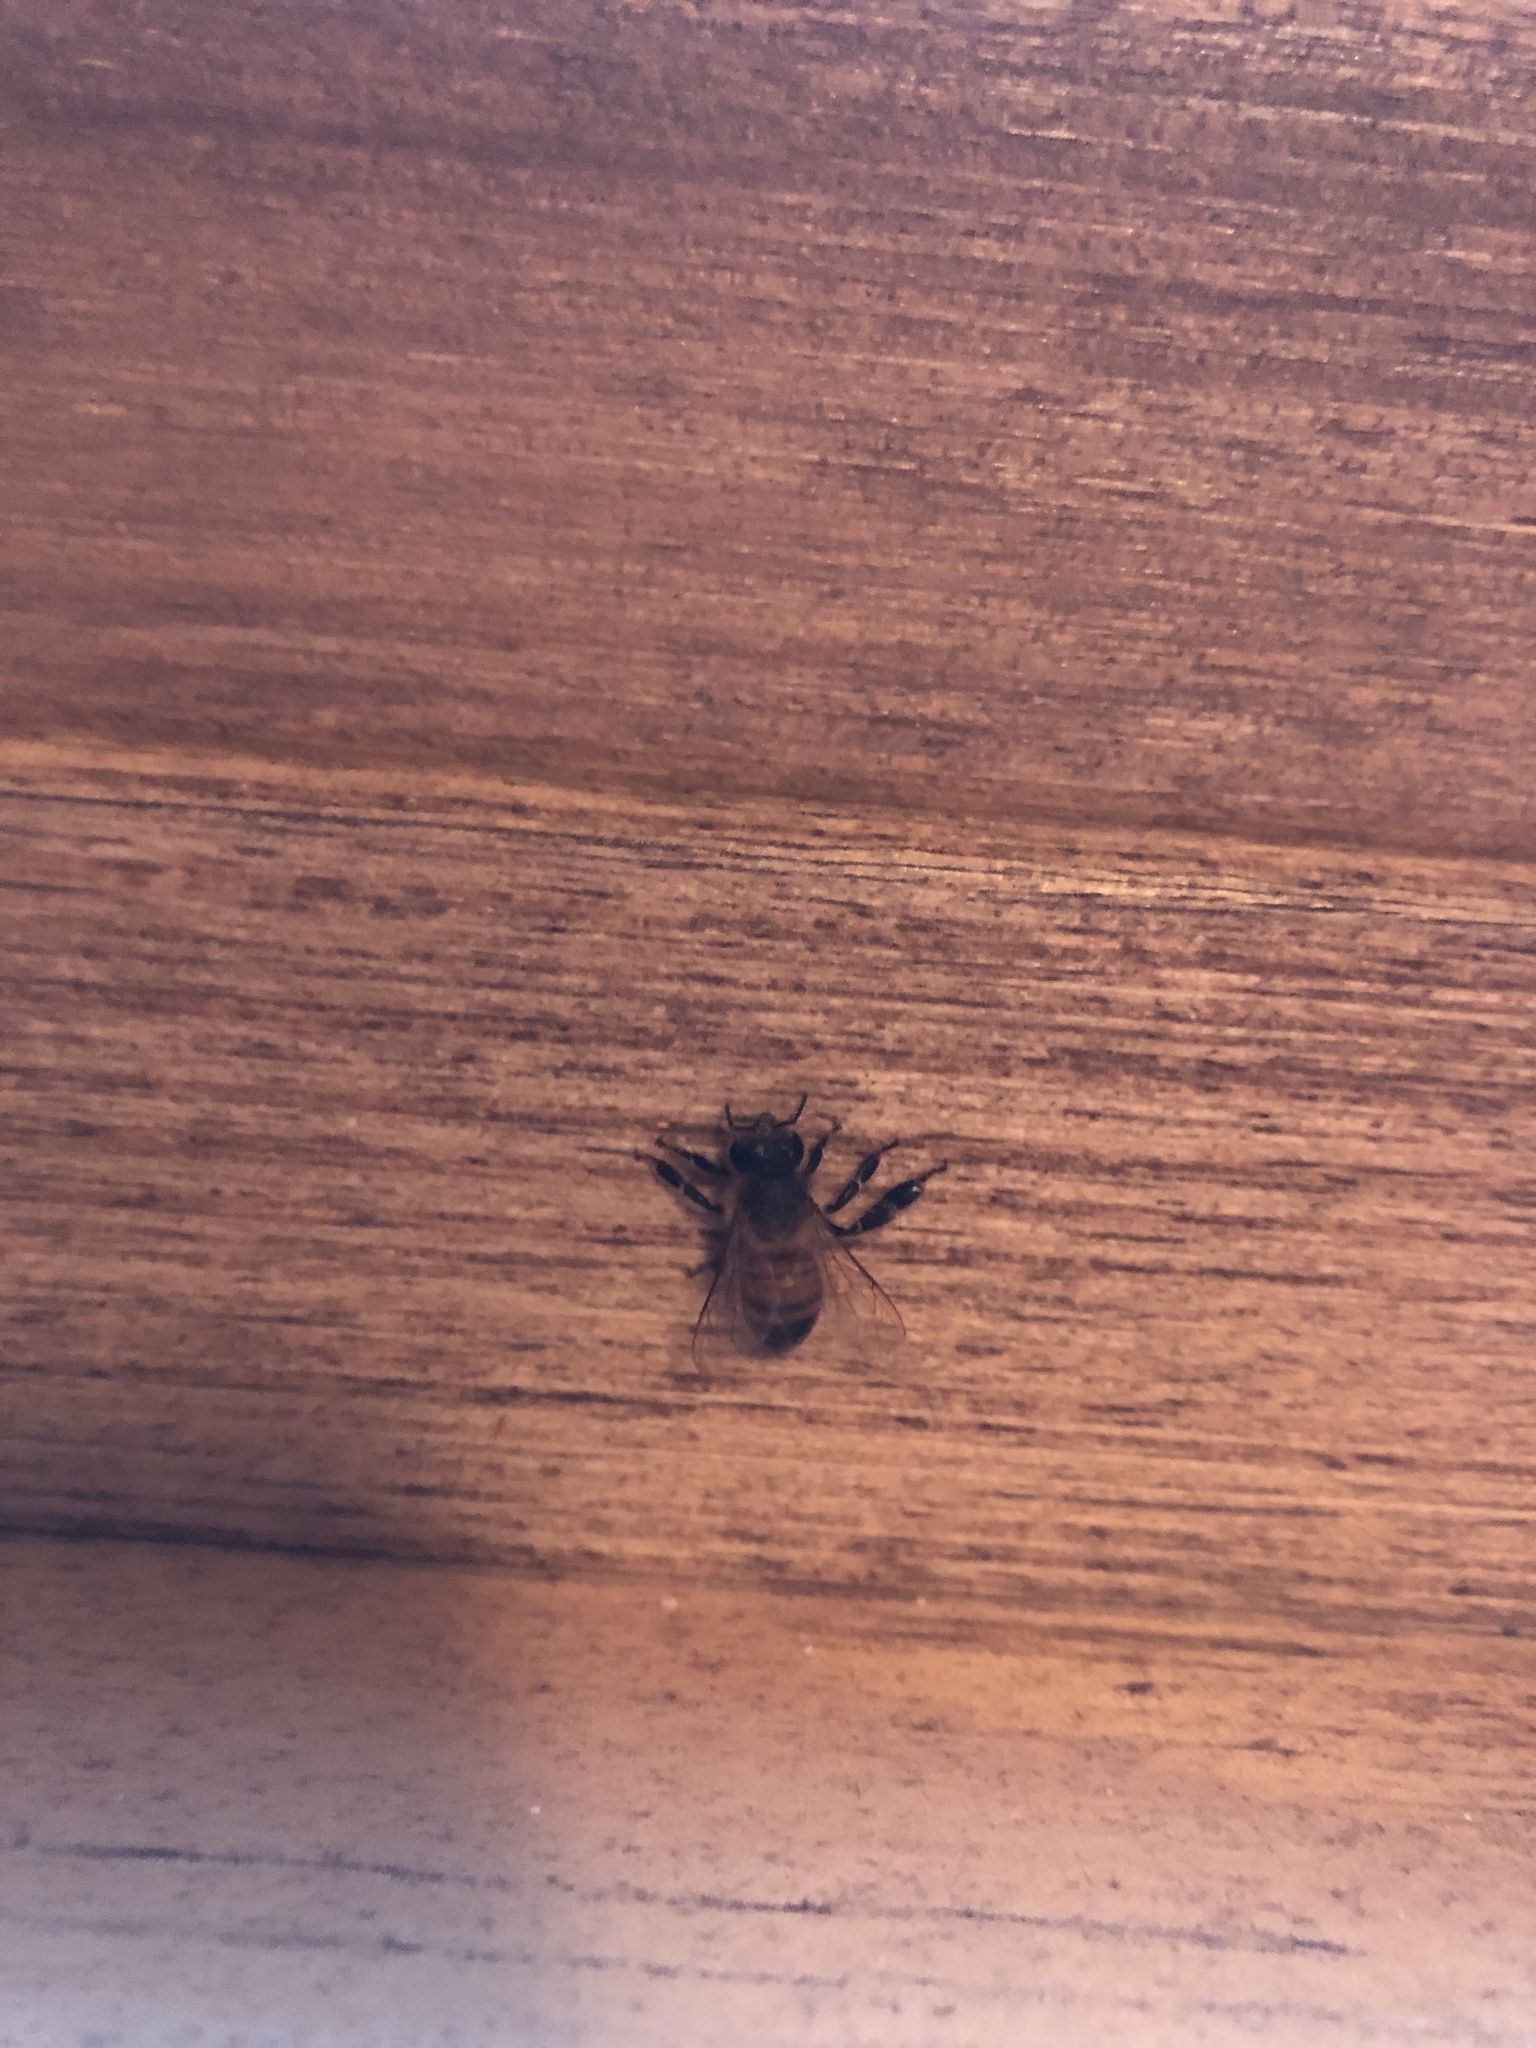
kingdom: Animalia
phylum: Arthropoda
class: Insecta
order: Hymenoptera
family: Apidae
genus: Apis
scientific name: Apis mellifera
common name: Honey bee
